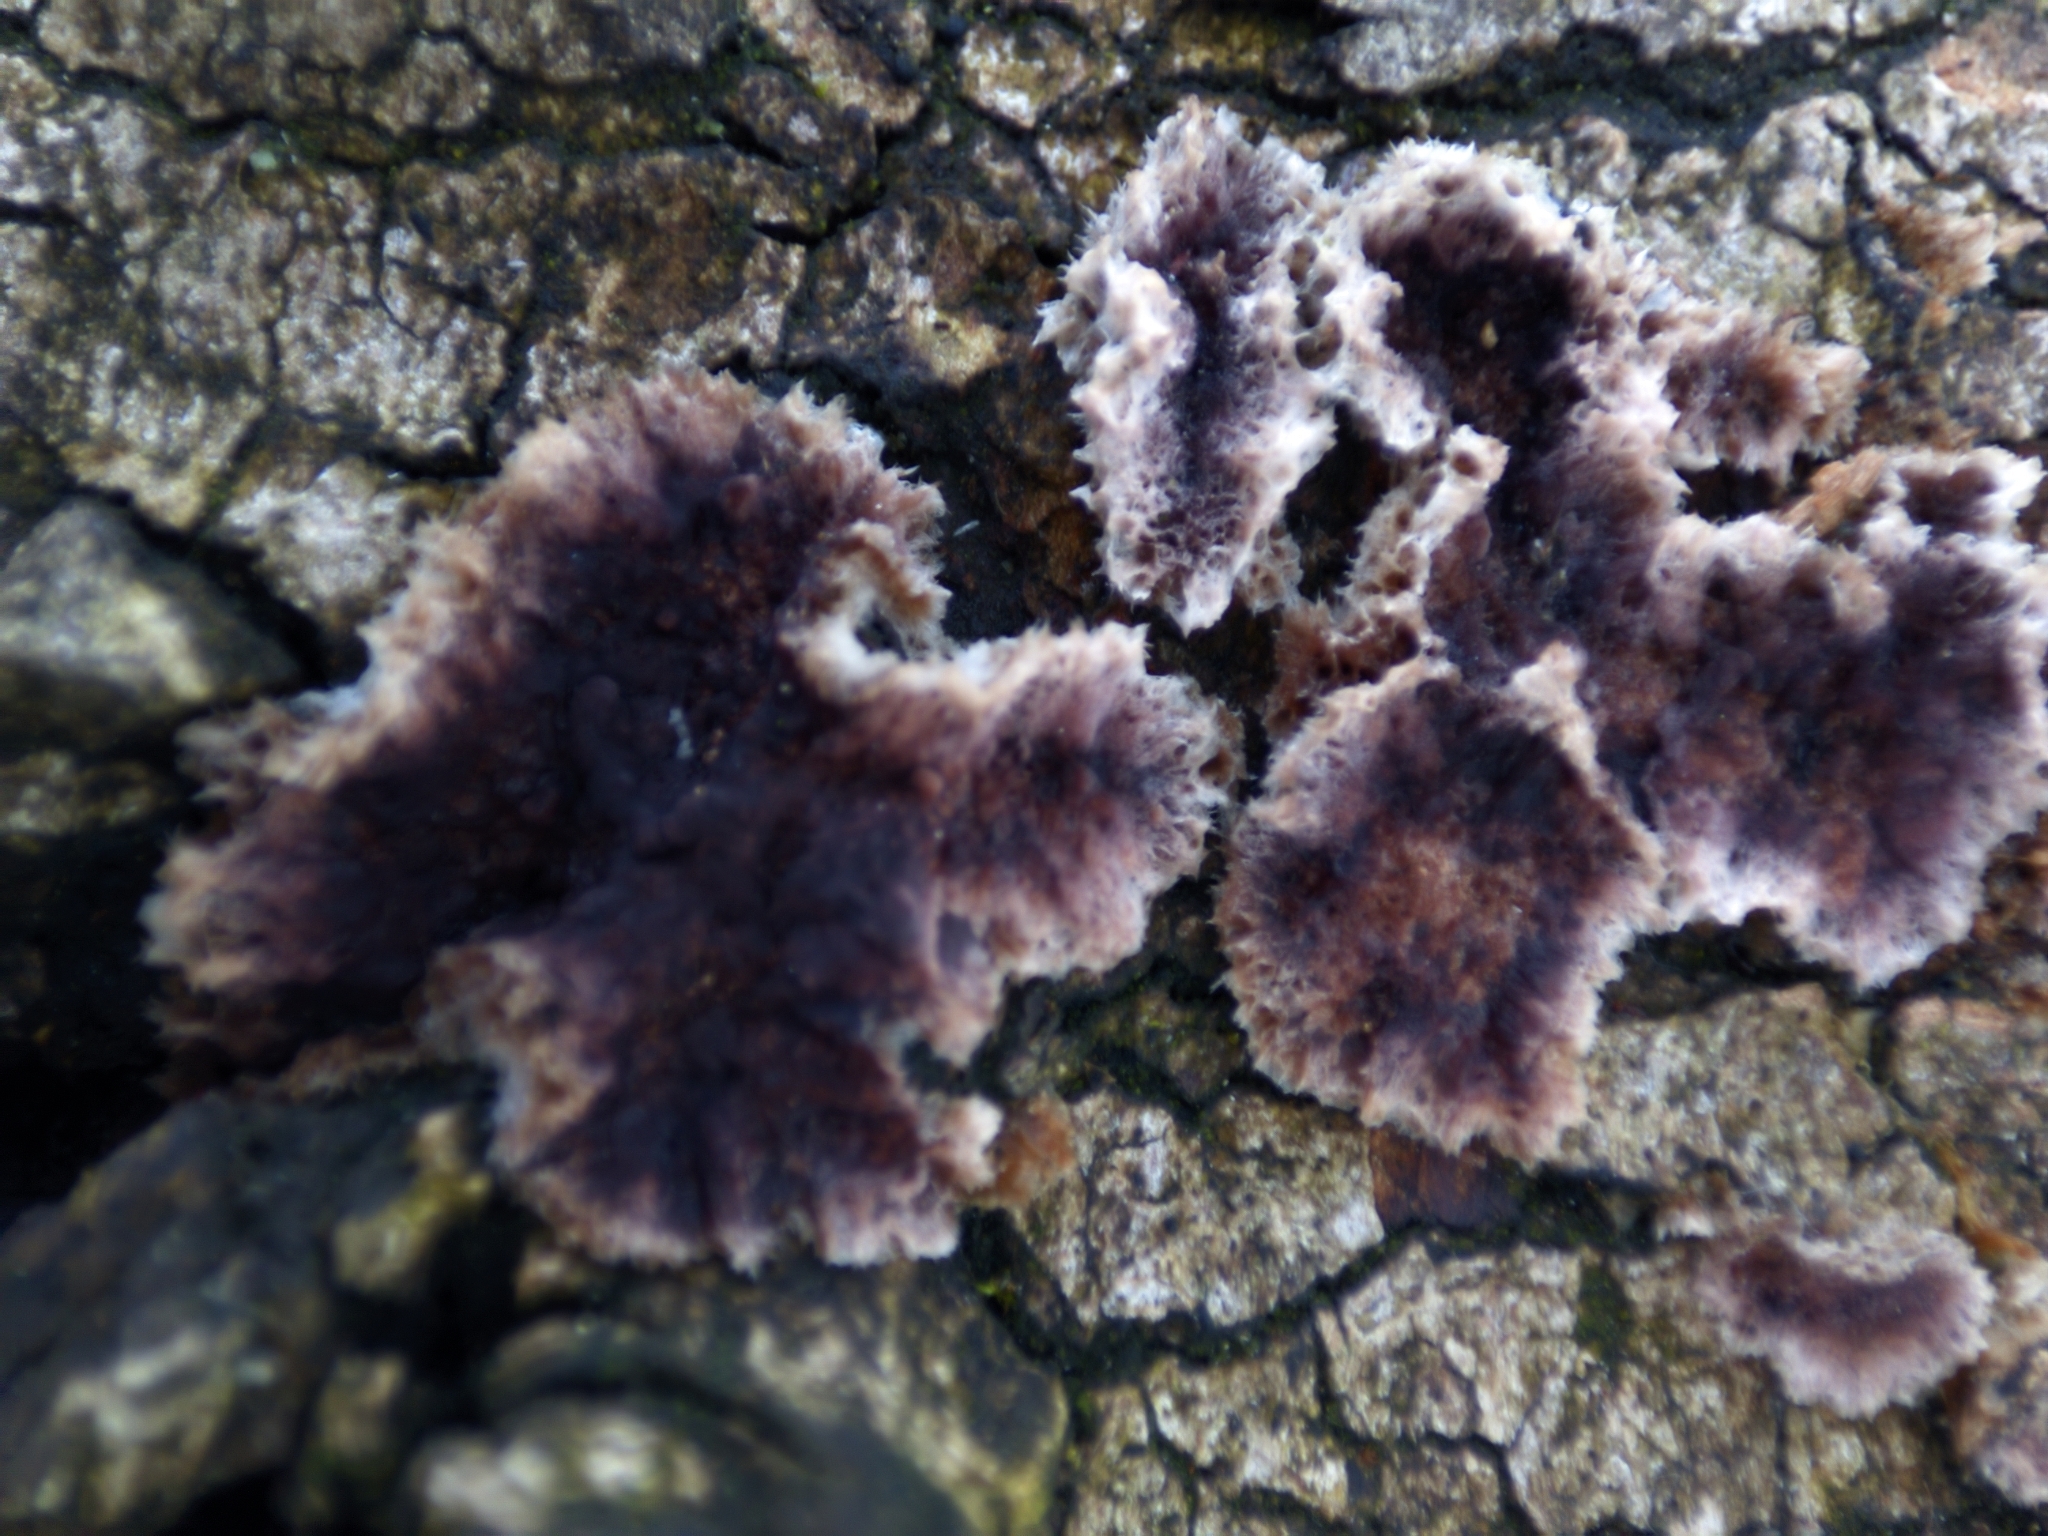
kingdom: Fungi
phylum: Basidiomycota
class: Agaricomycetes
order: Agaricales
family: Cyphellaceae
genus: Chondrostereum
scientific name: Chondrostereum purpureum
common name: Silver leaf disease
